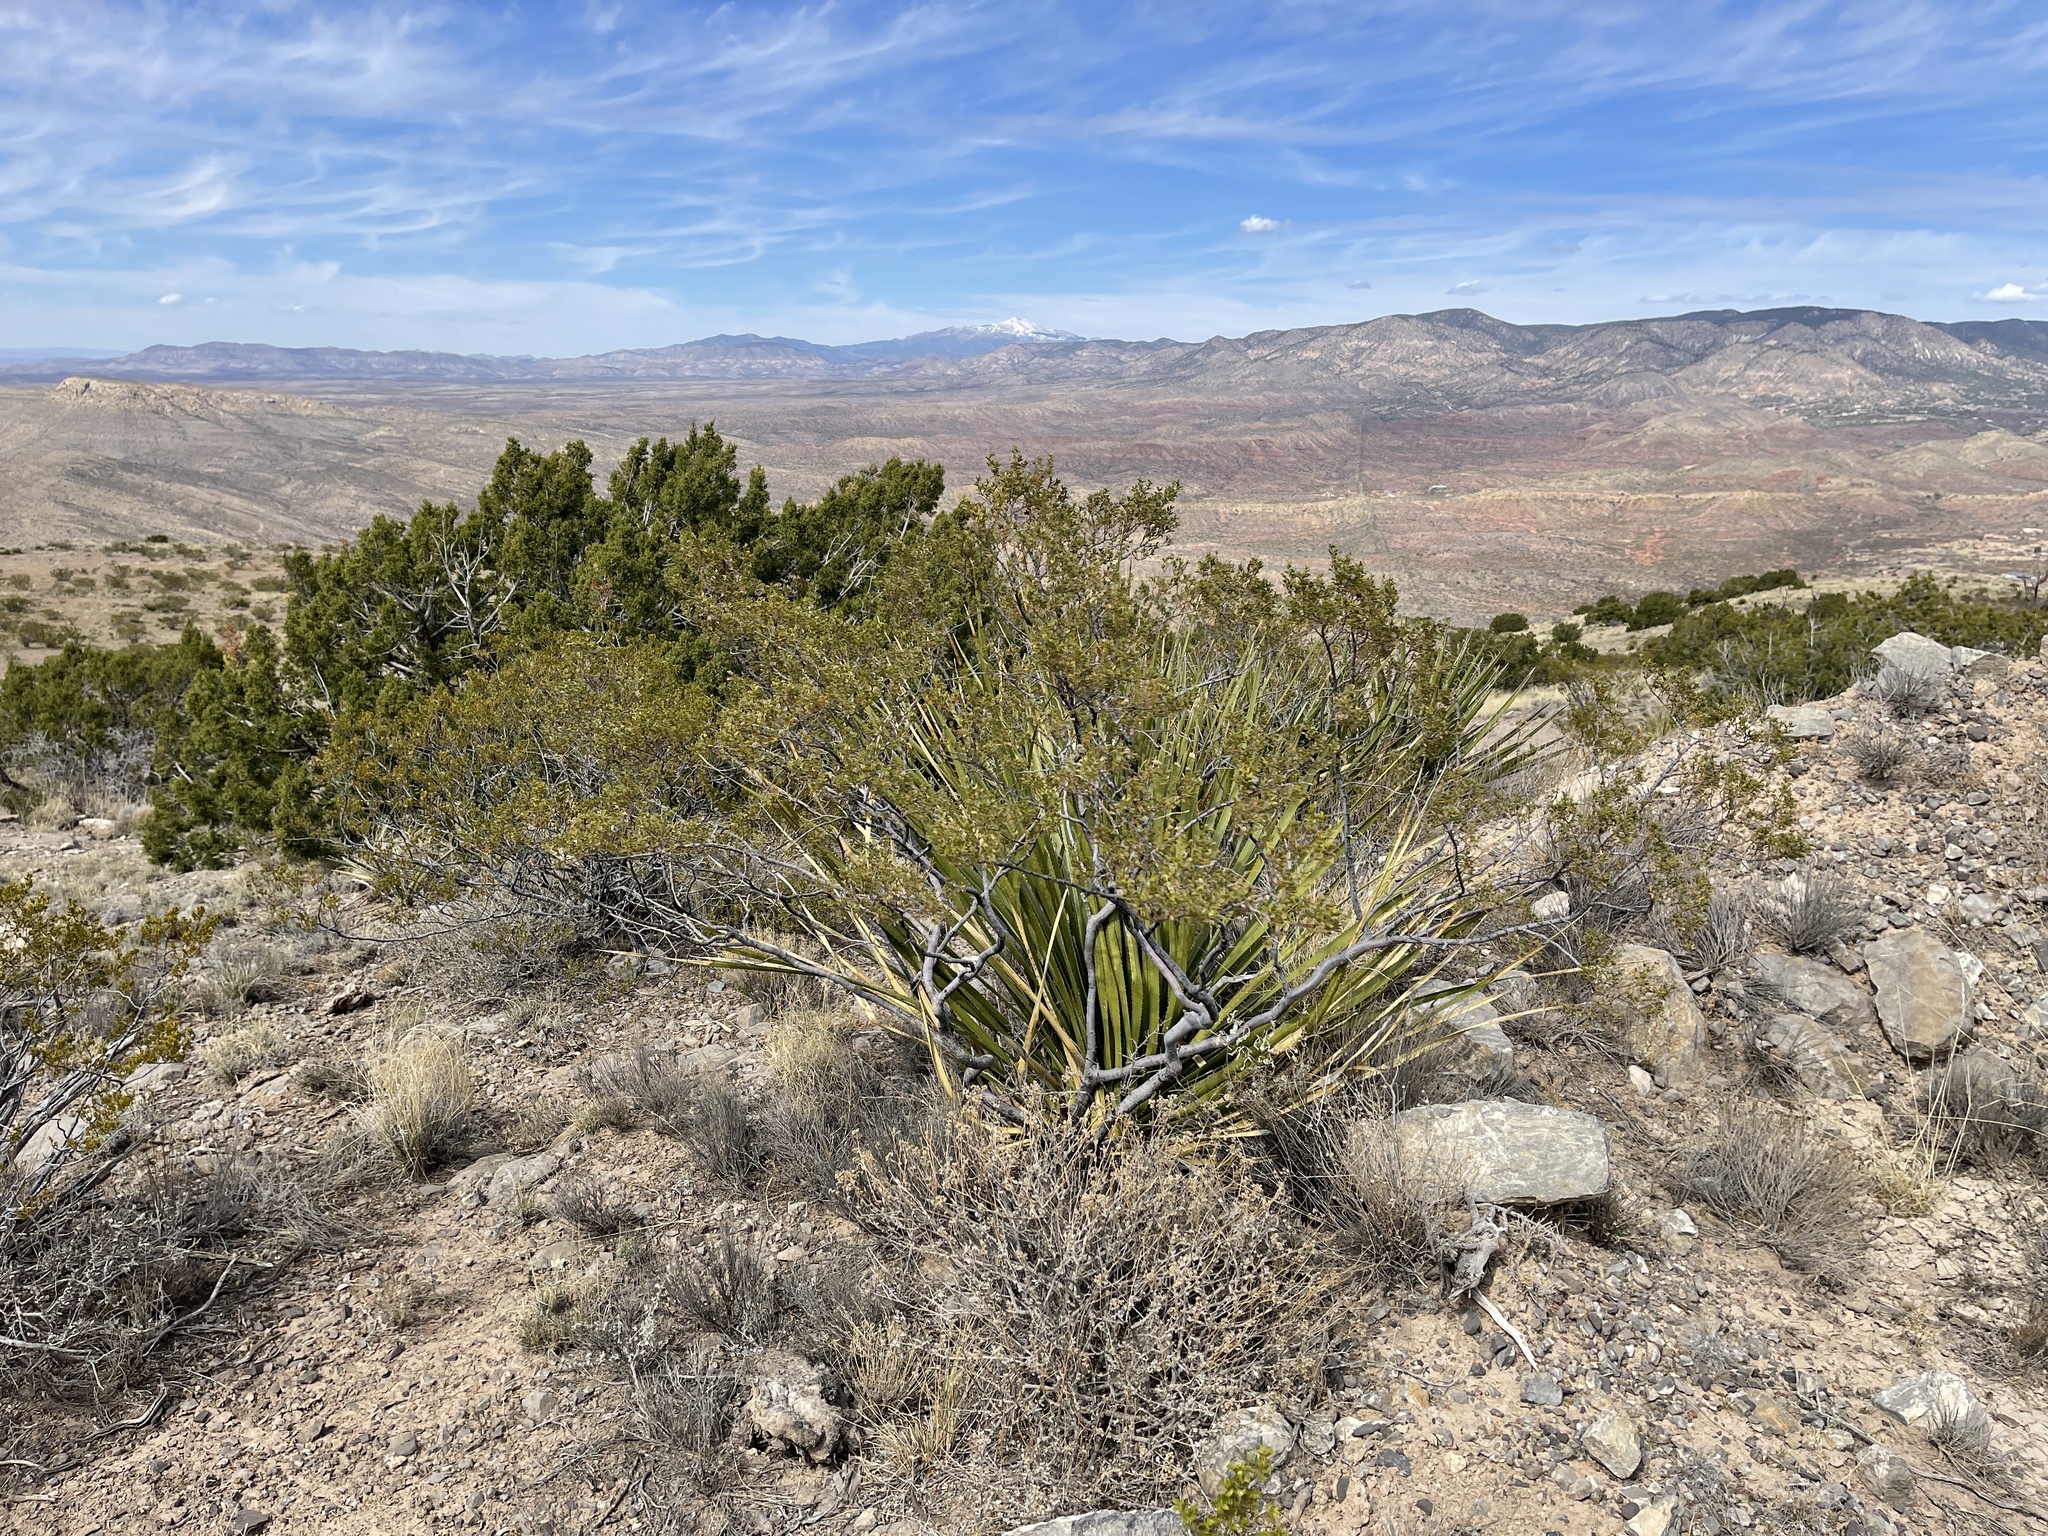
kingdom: Plantae
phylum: Tracheophyta
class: Magnoliopsida
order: Zygophyllales
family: Zygophyllaceae
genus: Larrea
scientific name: Larrea tridentata
